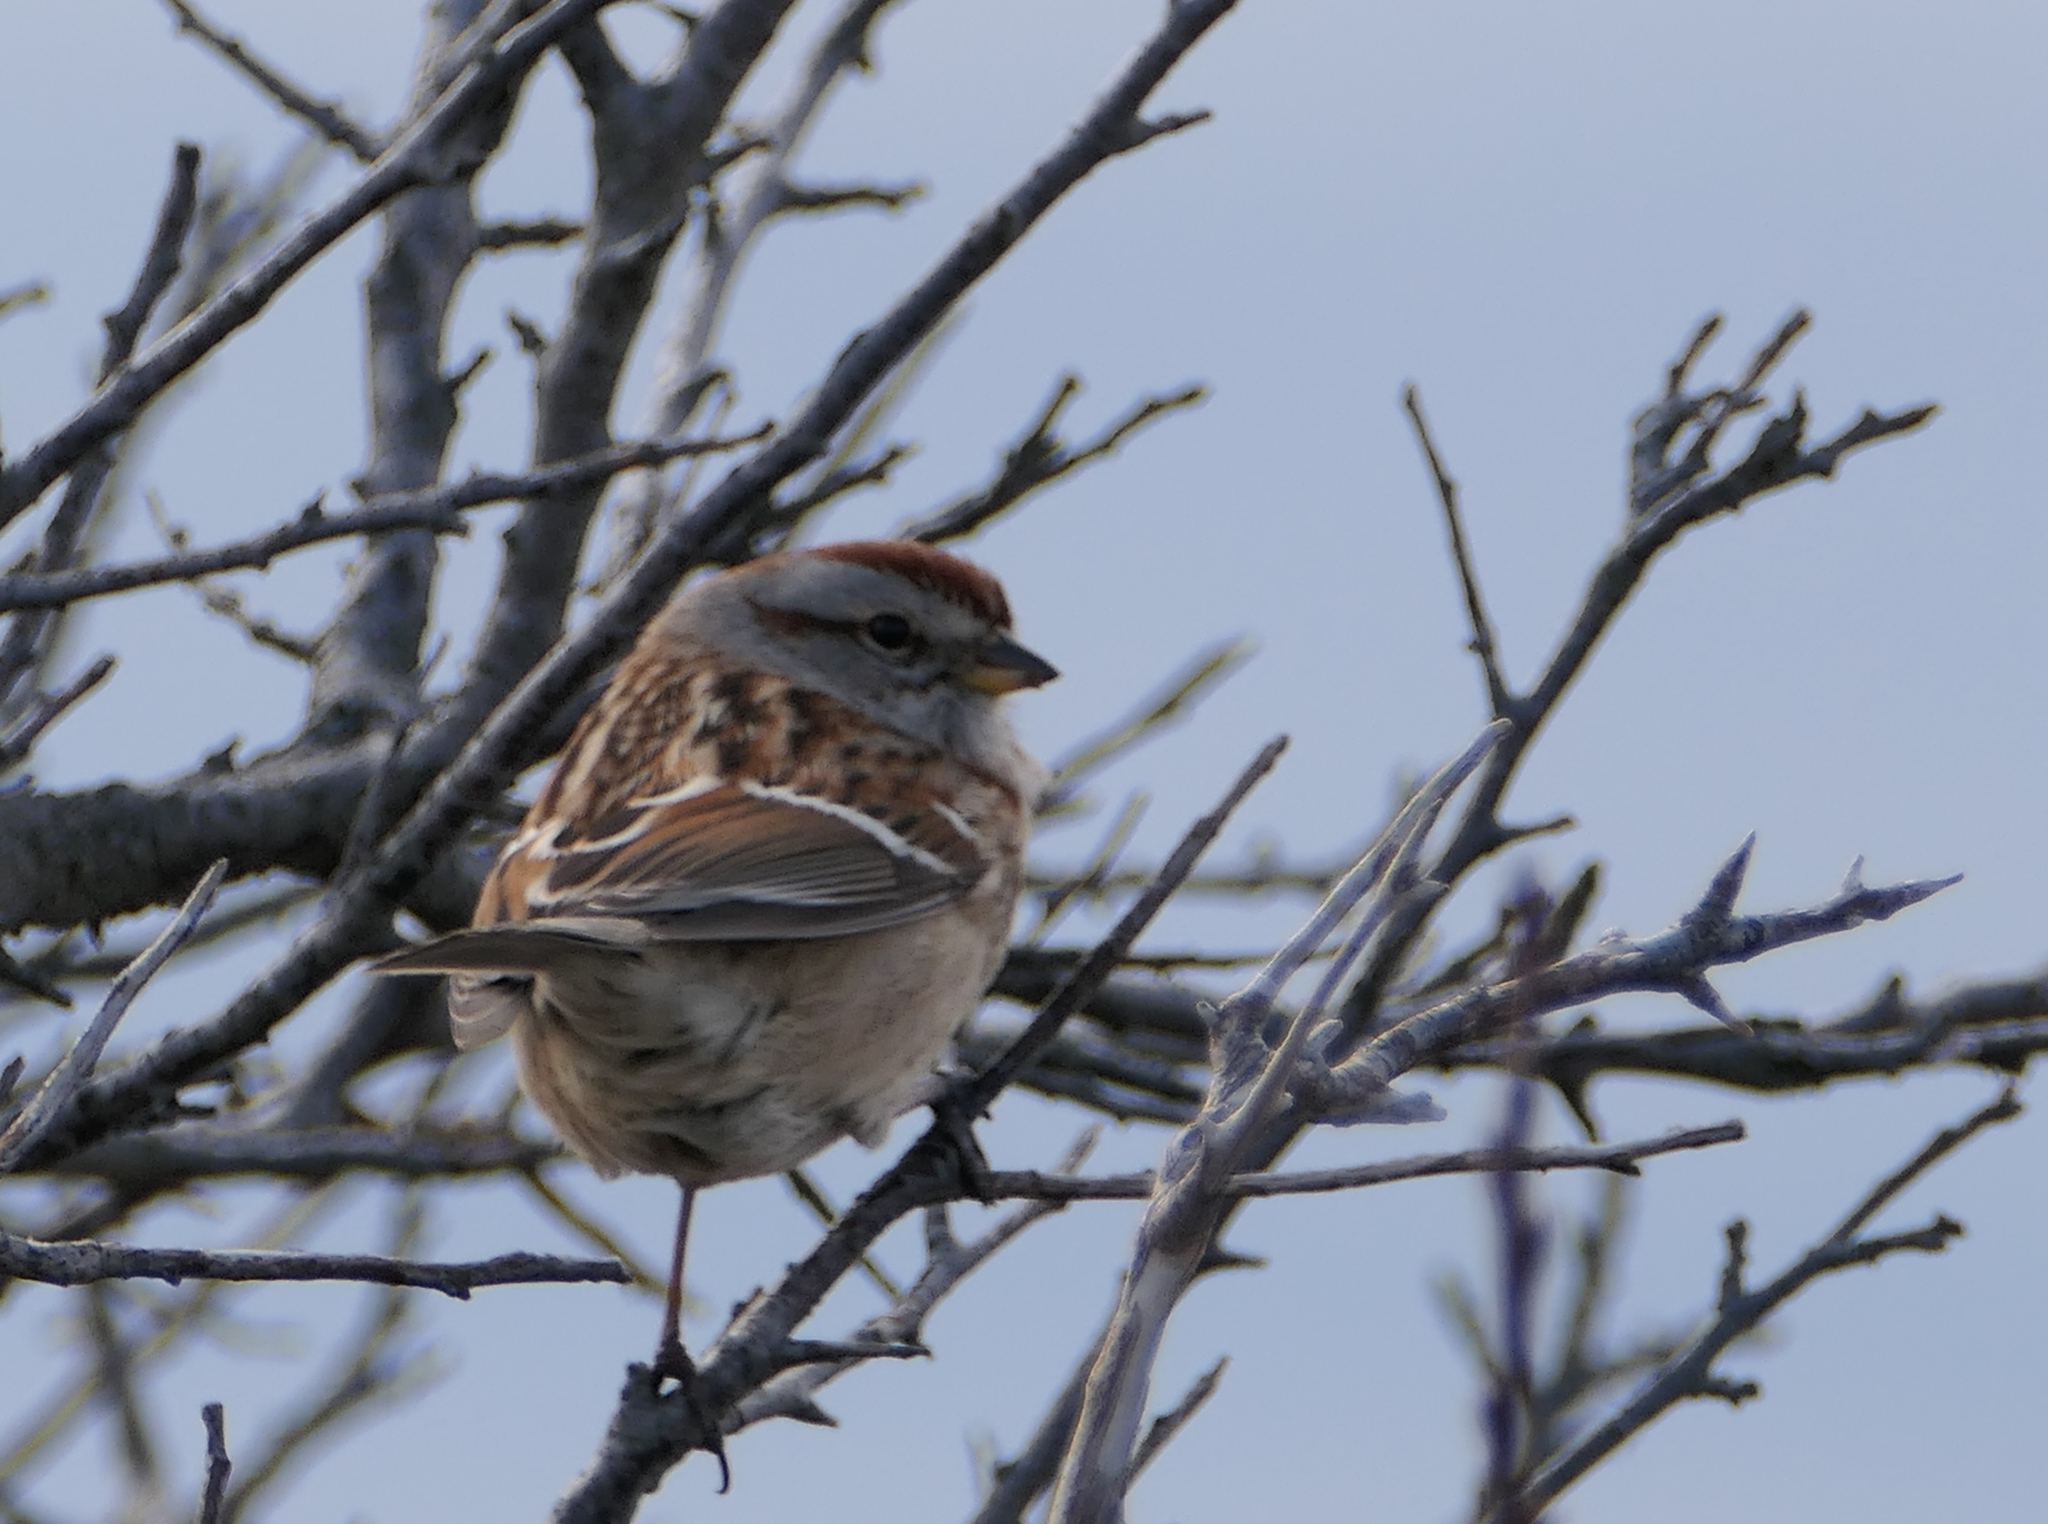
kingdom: Animalia
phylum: Chordata
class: Aves
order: Passeriformes
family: Passerellidae
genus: Spizelloides
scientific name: Spizelloides arborea
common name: American tree sparrow
